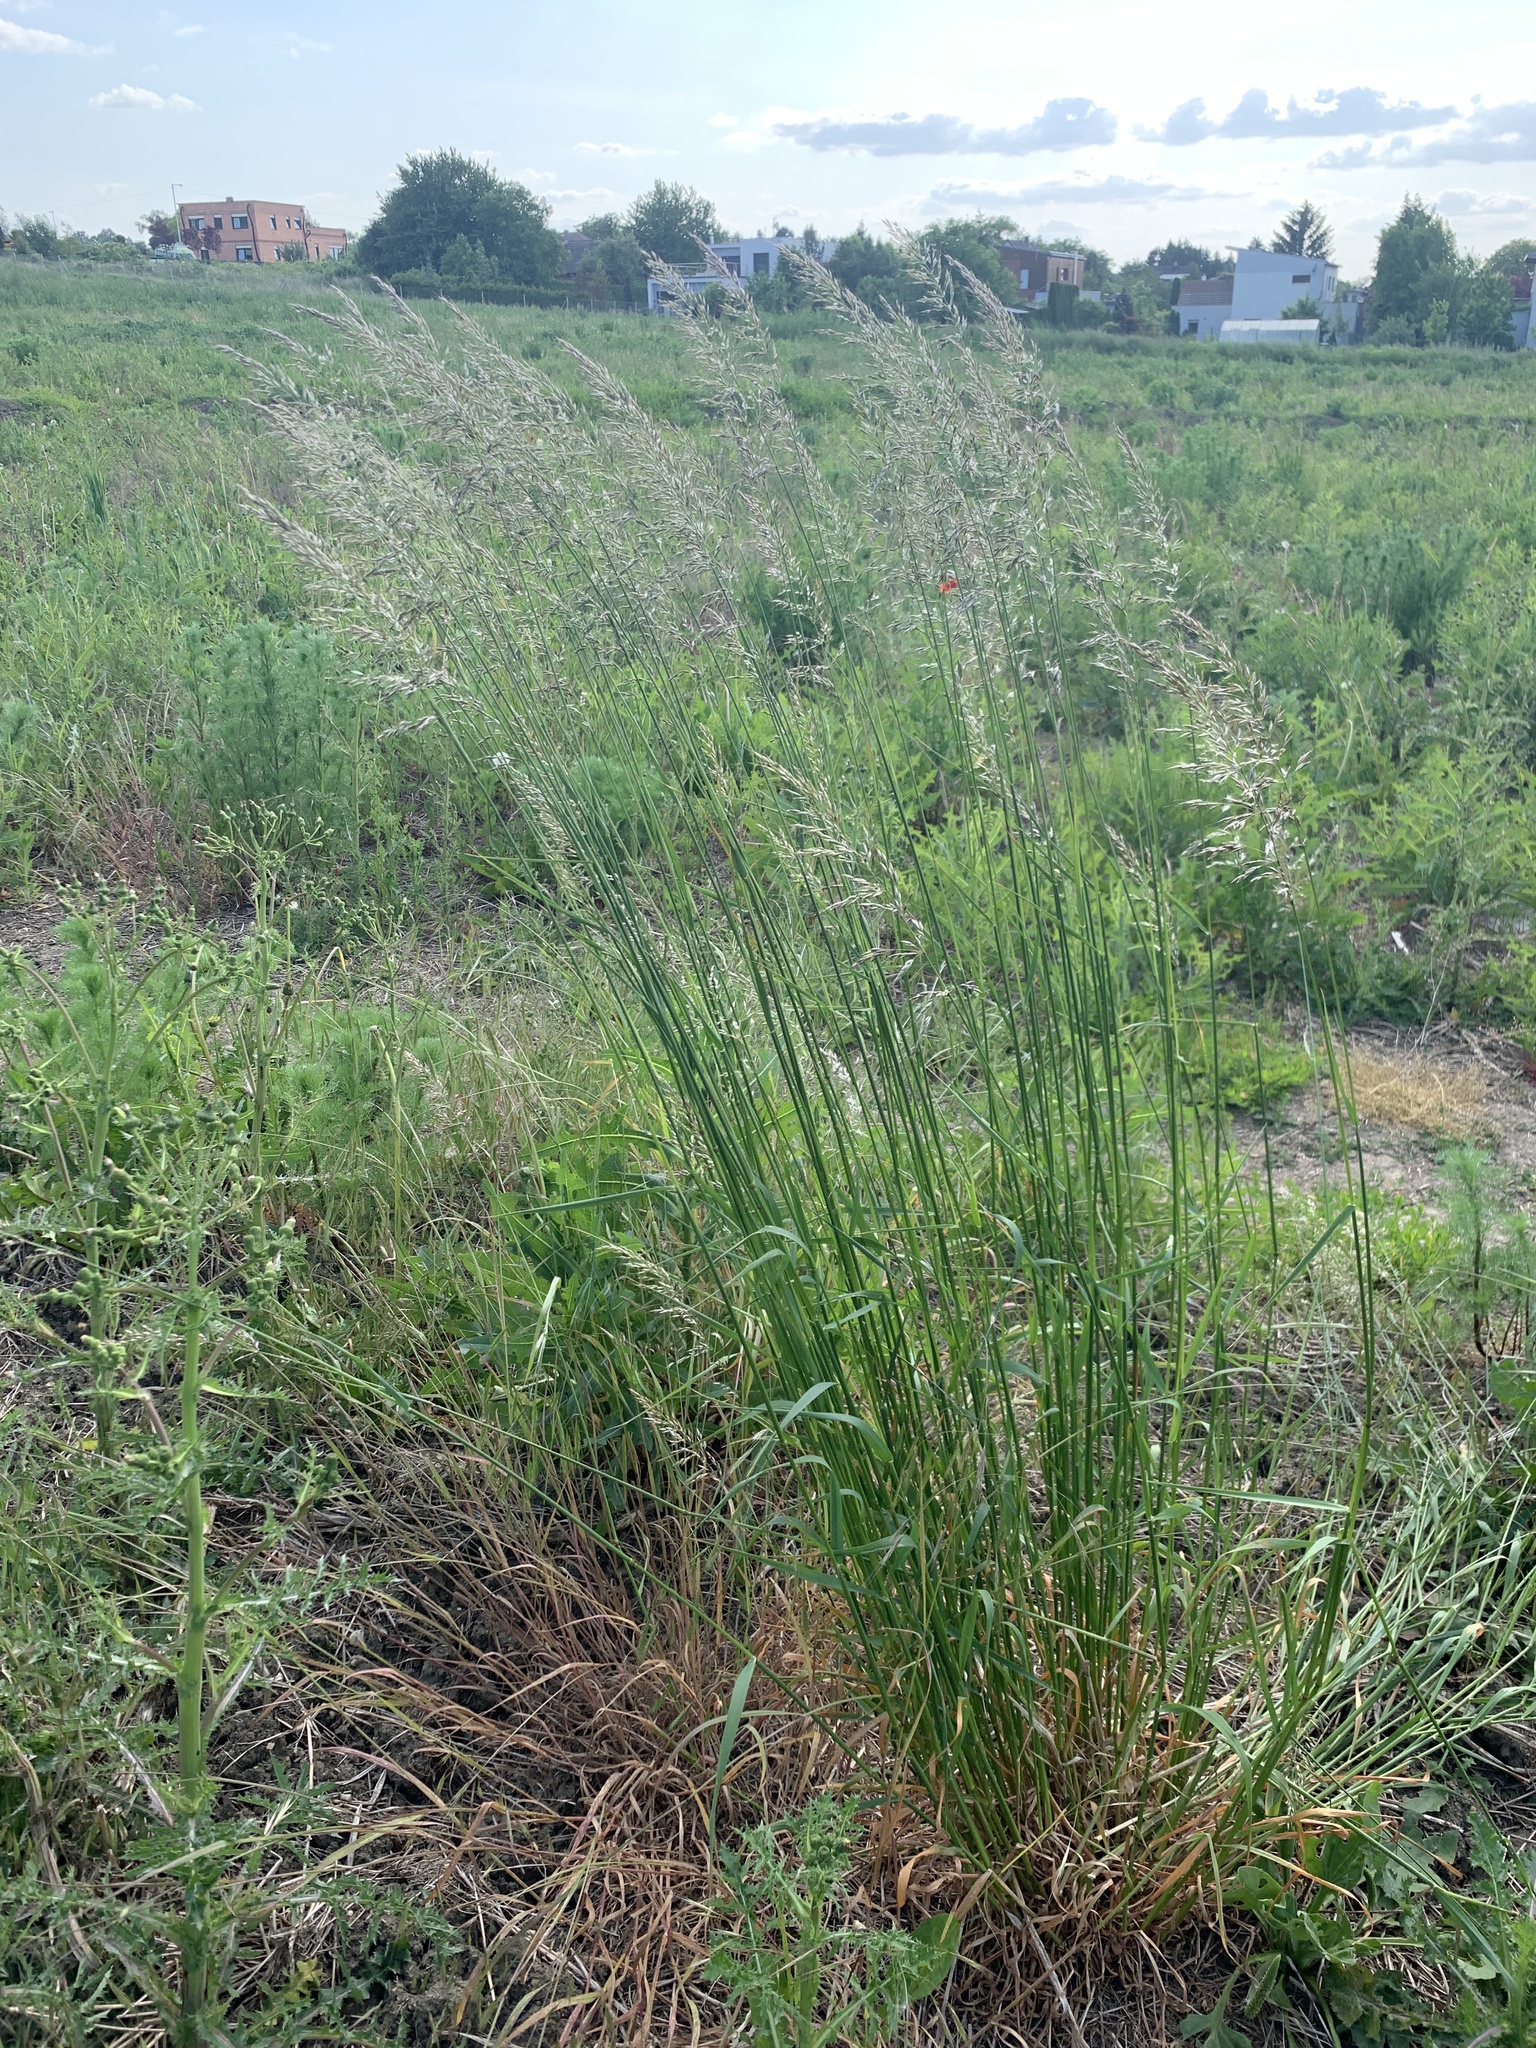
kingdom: Plantae
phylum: Tracheophyta
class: Liliopsida
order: Poales
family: Poaceae
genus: Arrhenatherum
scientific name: Arrhenatherum elatius
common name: Tall oatgrass
